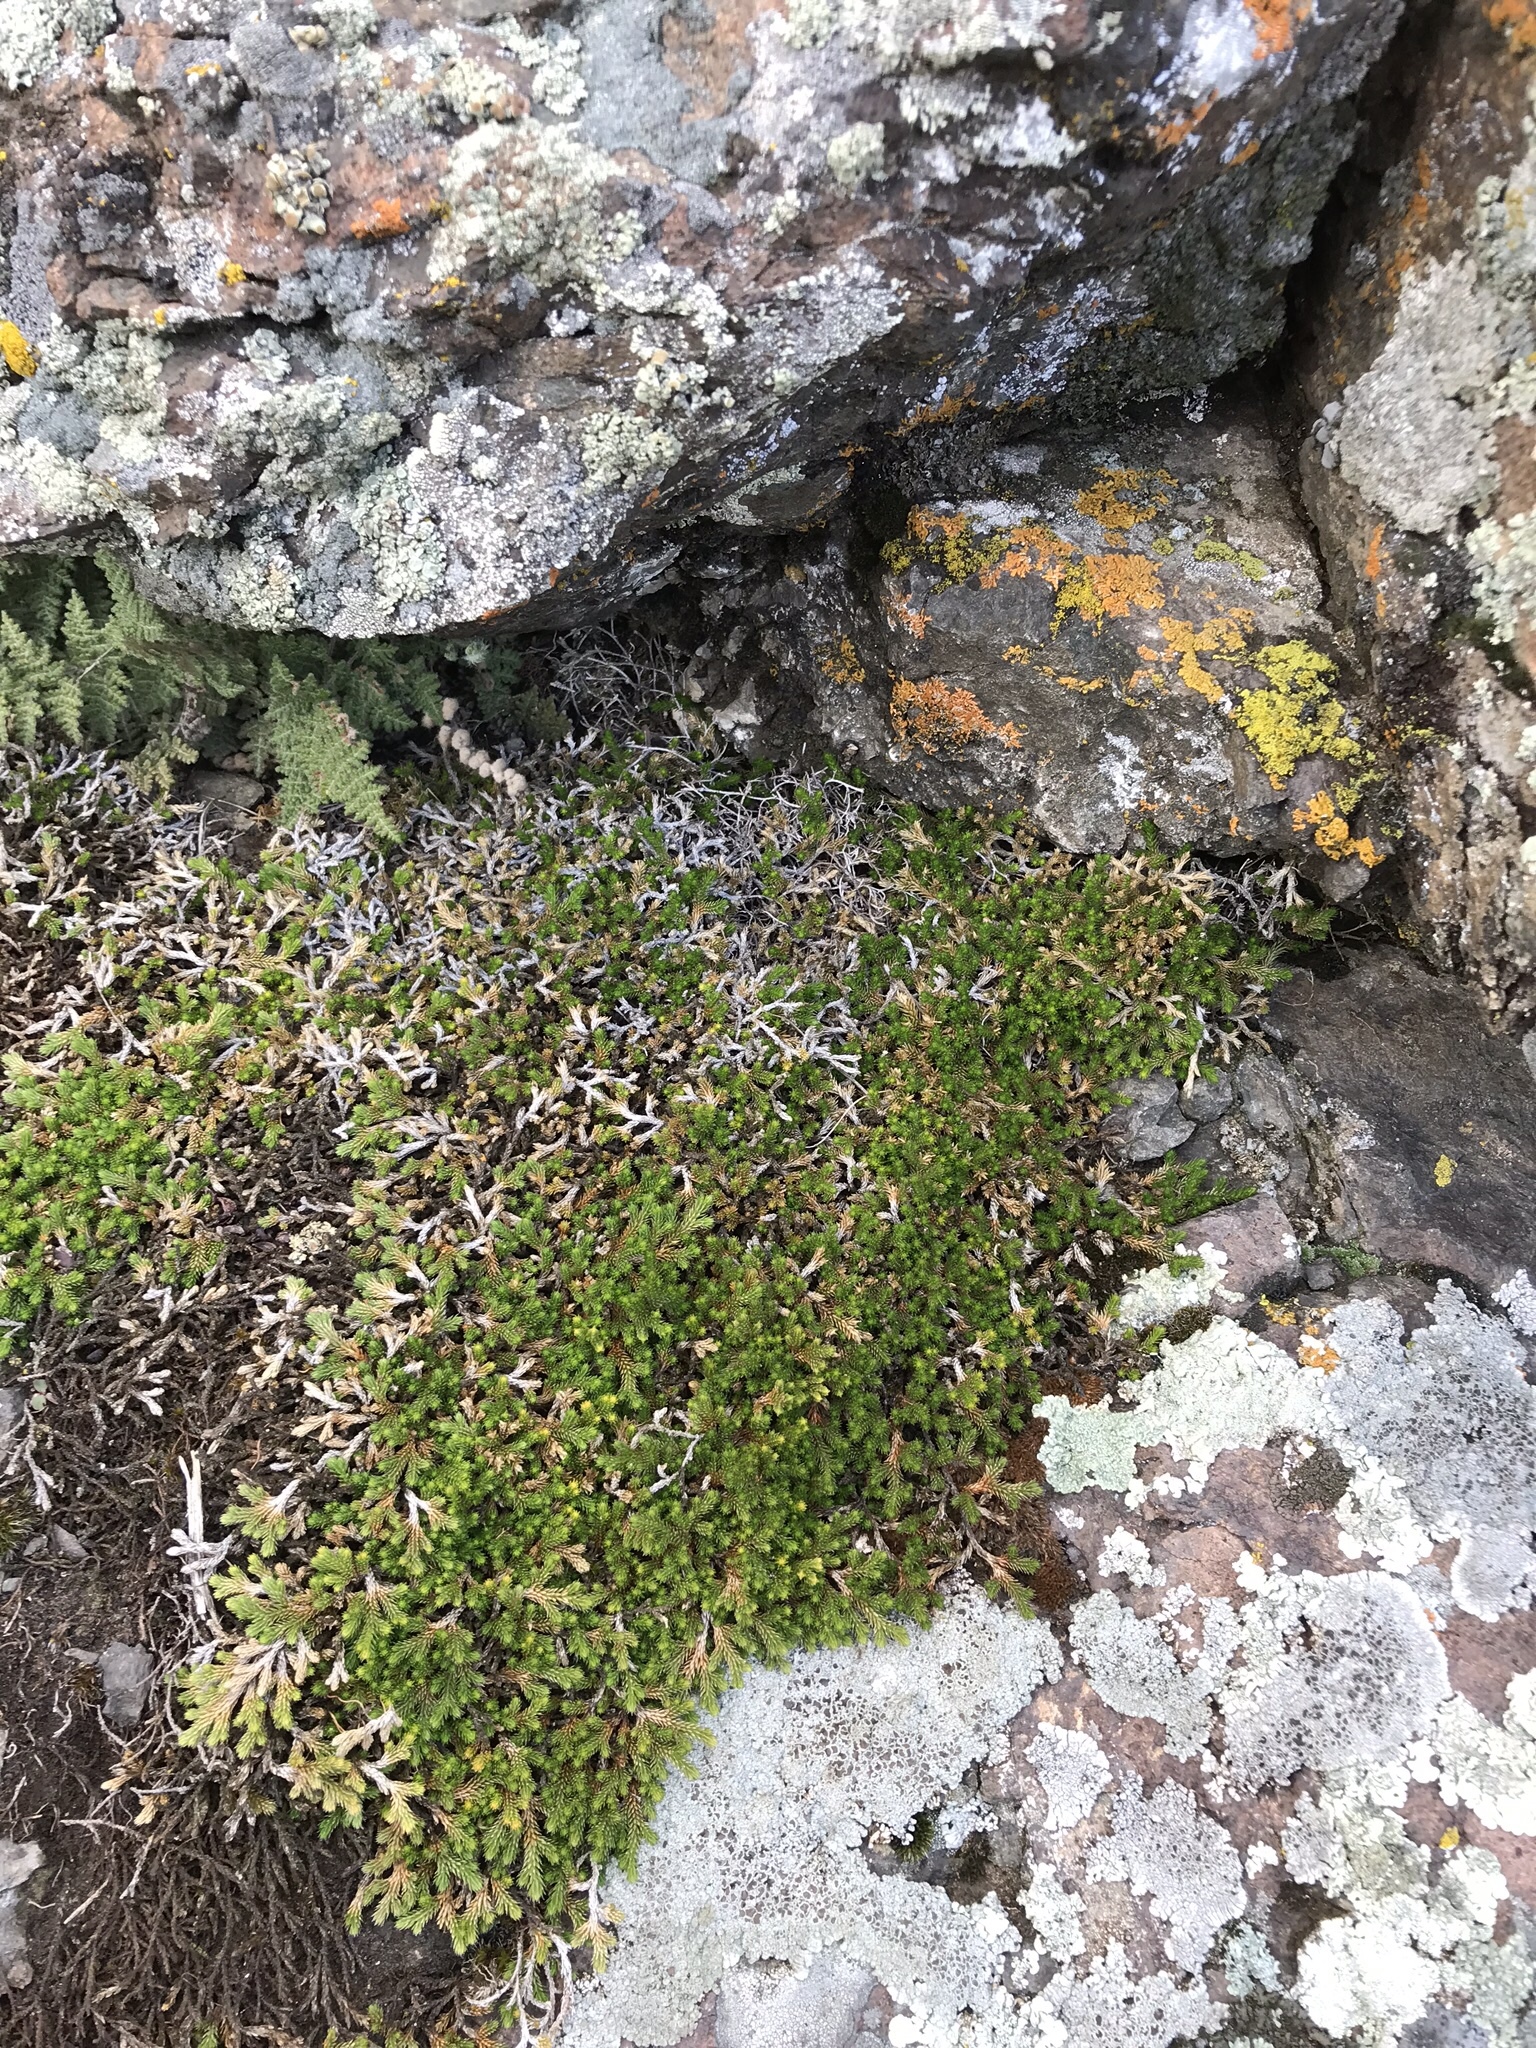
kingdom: Plantae
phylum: Tracheophyta
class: Lycopodiopsida
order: Selaginellales
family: Selaginellaceae
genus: Selaginella
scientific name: Selaginella wallacei
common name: Wallace's selaginella
